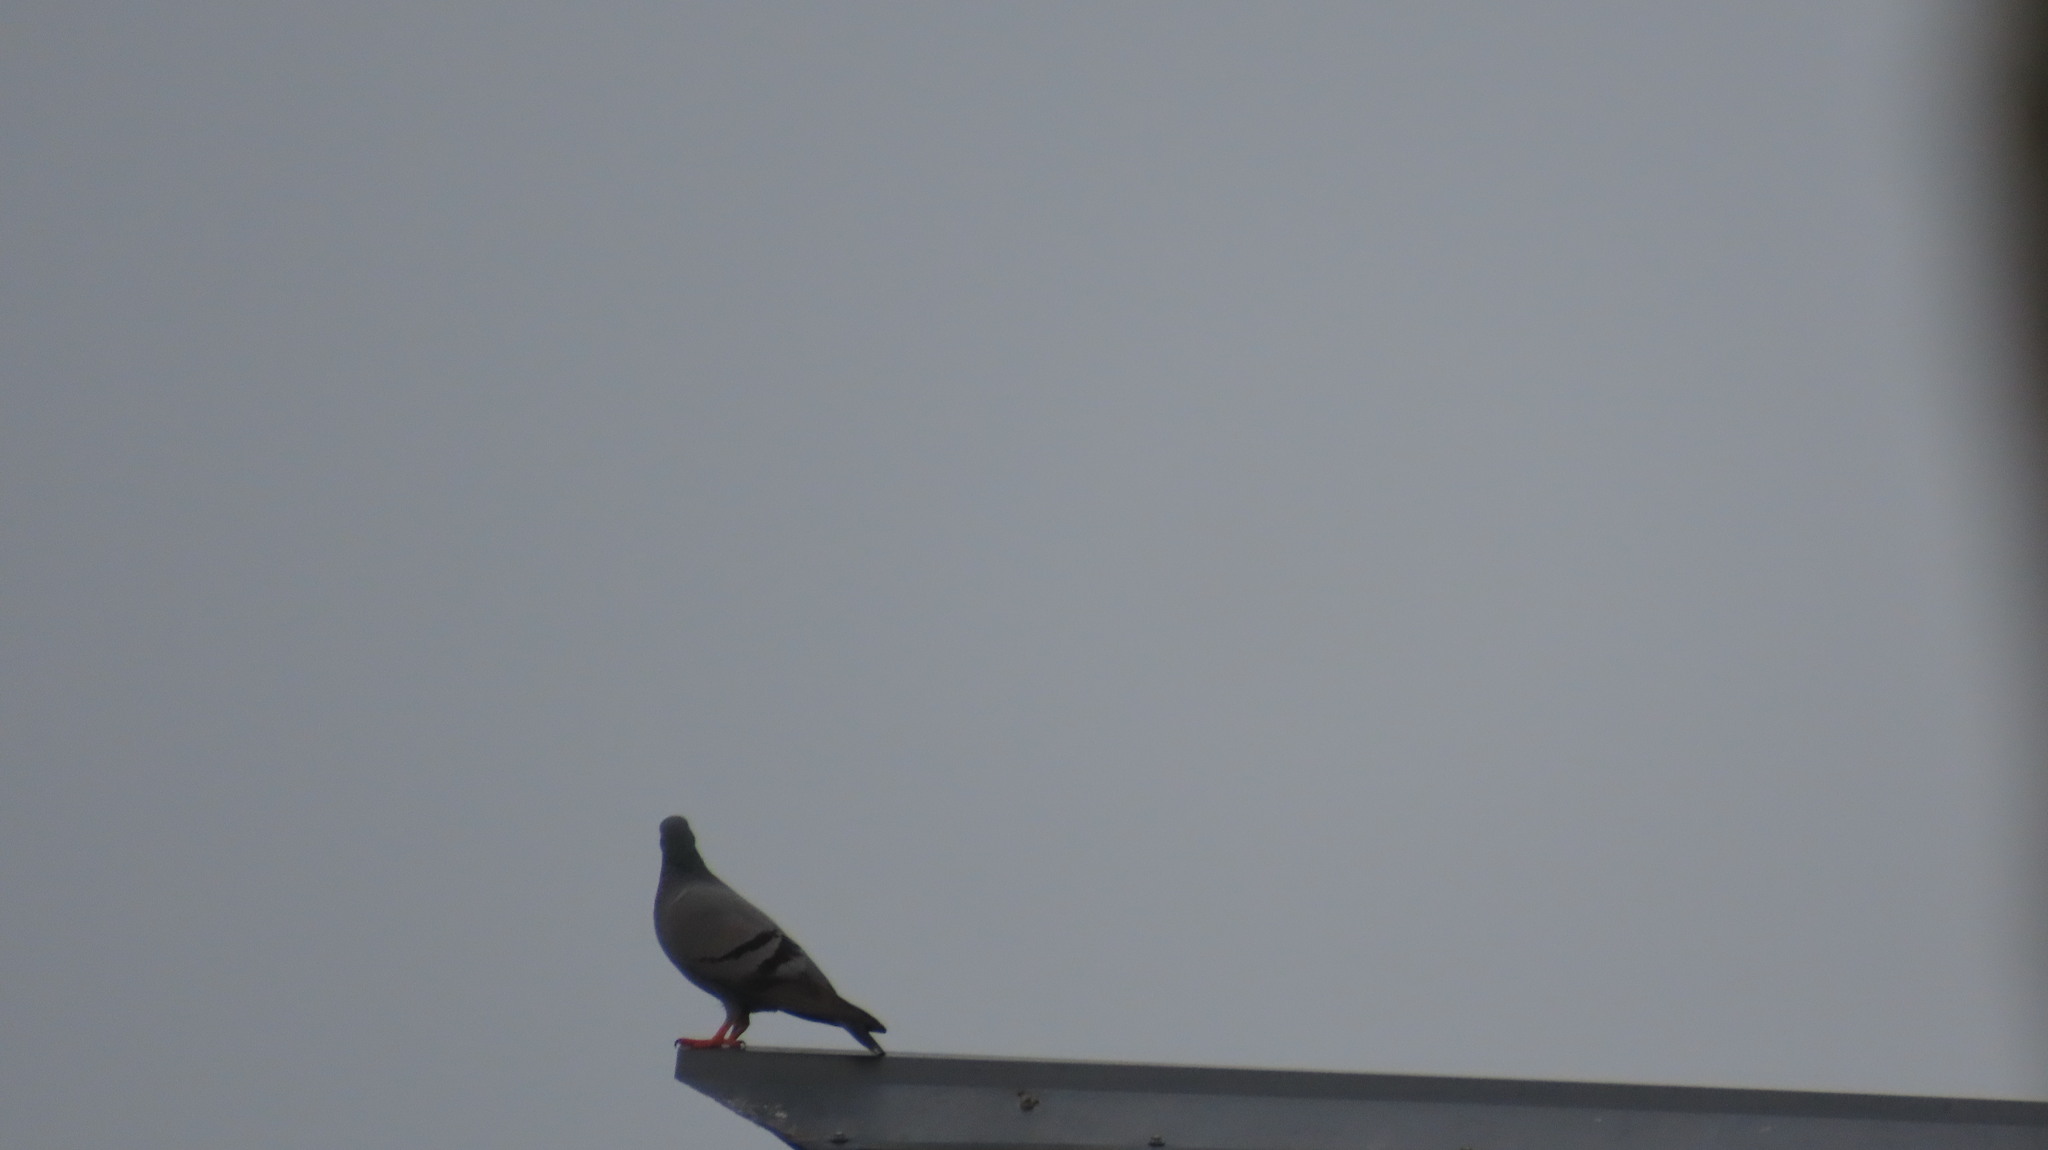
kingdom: Animalia
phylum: Chordata
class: Aves
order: Columbiformes
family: Columbidae
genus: Columba
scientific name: Columba livia
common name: Rock pigeon
